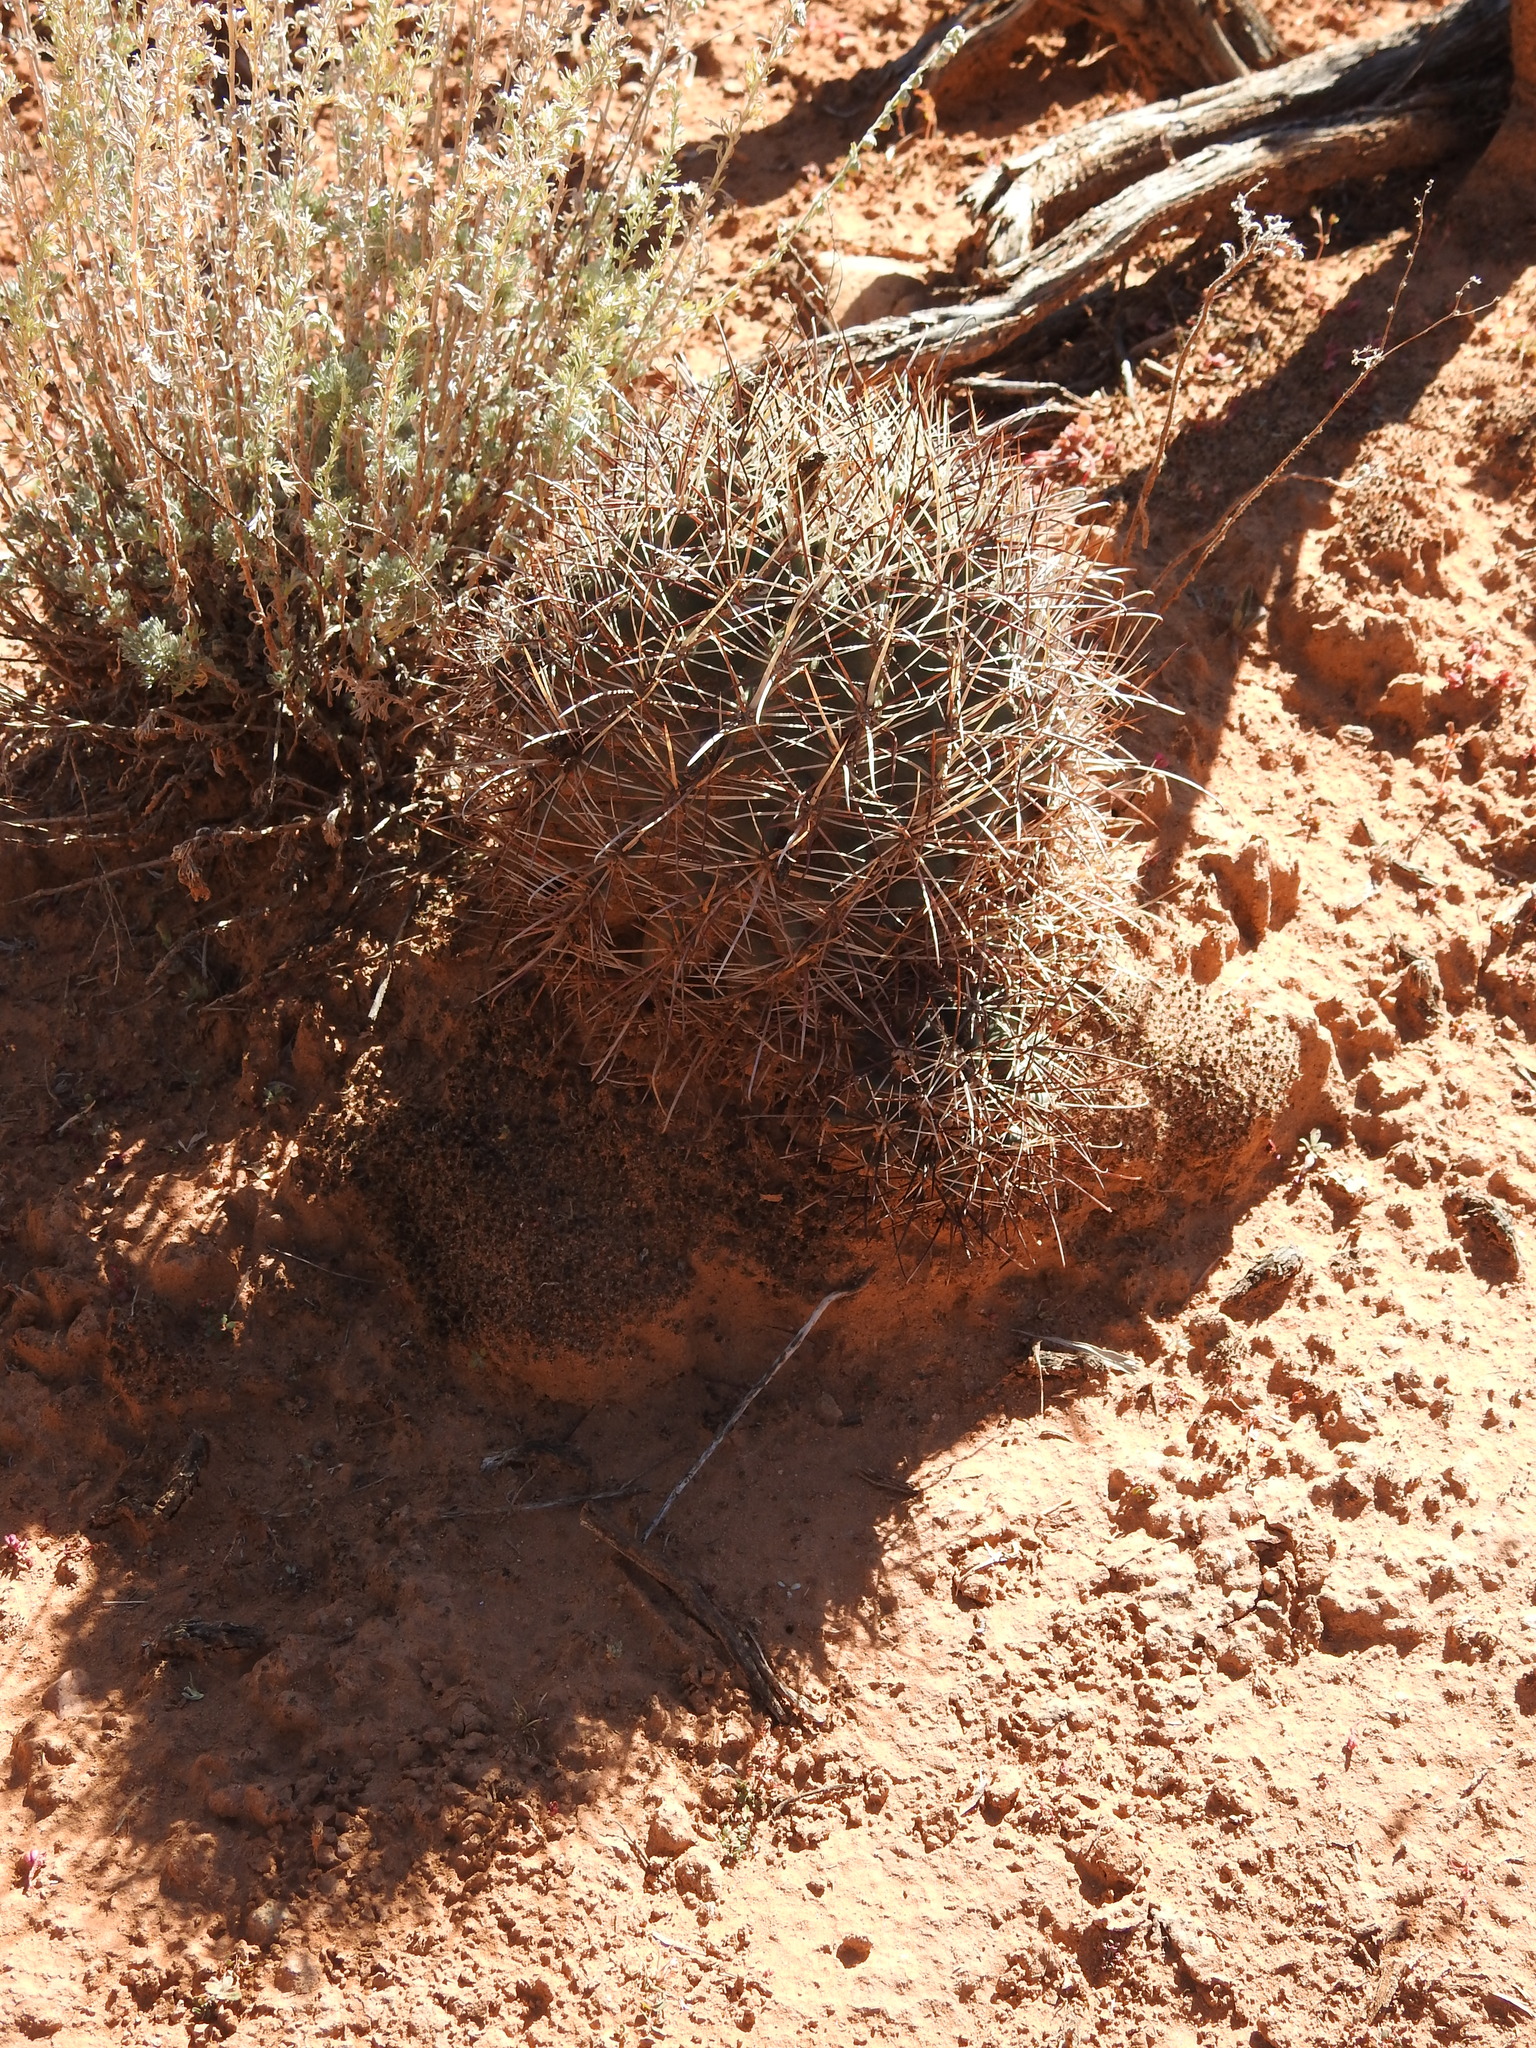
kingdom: Plantae
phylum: Tracheophyta
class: Magnoliopsida
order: Caryophyllales
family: Cactaceae
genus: Sclerocactus
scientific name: Sclerocactus parviflorus
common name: Small-flower fishhook cactus
